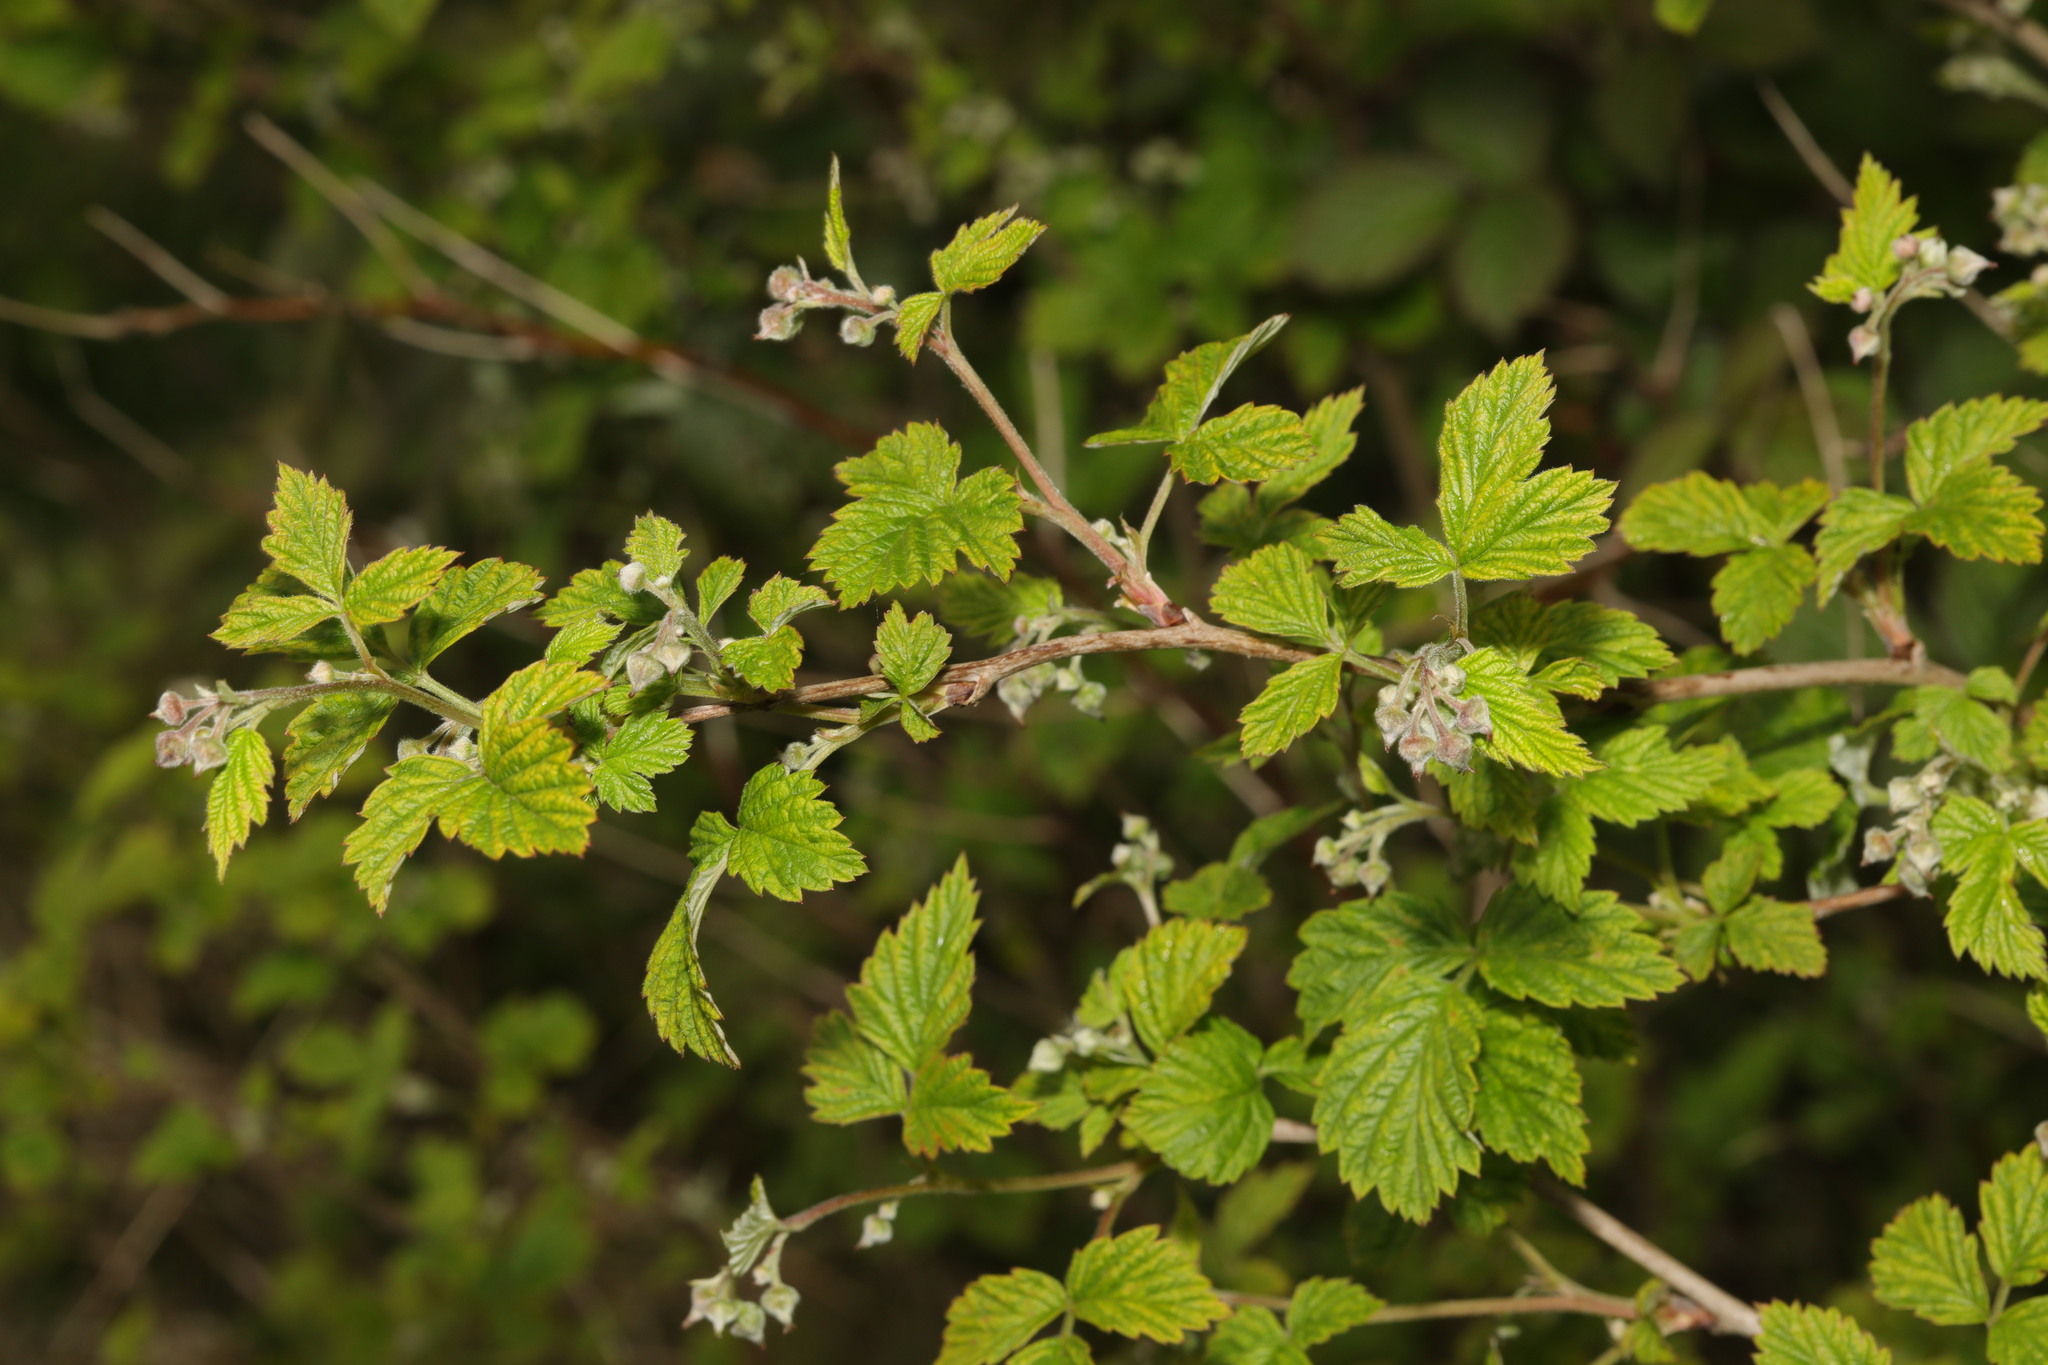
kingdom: Plantae
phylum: Tracheophyta
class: Magnoliopsida
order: Rosales
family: Rosaceae
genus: Rubus
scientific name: Rubus idaeus
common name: Raspberry
